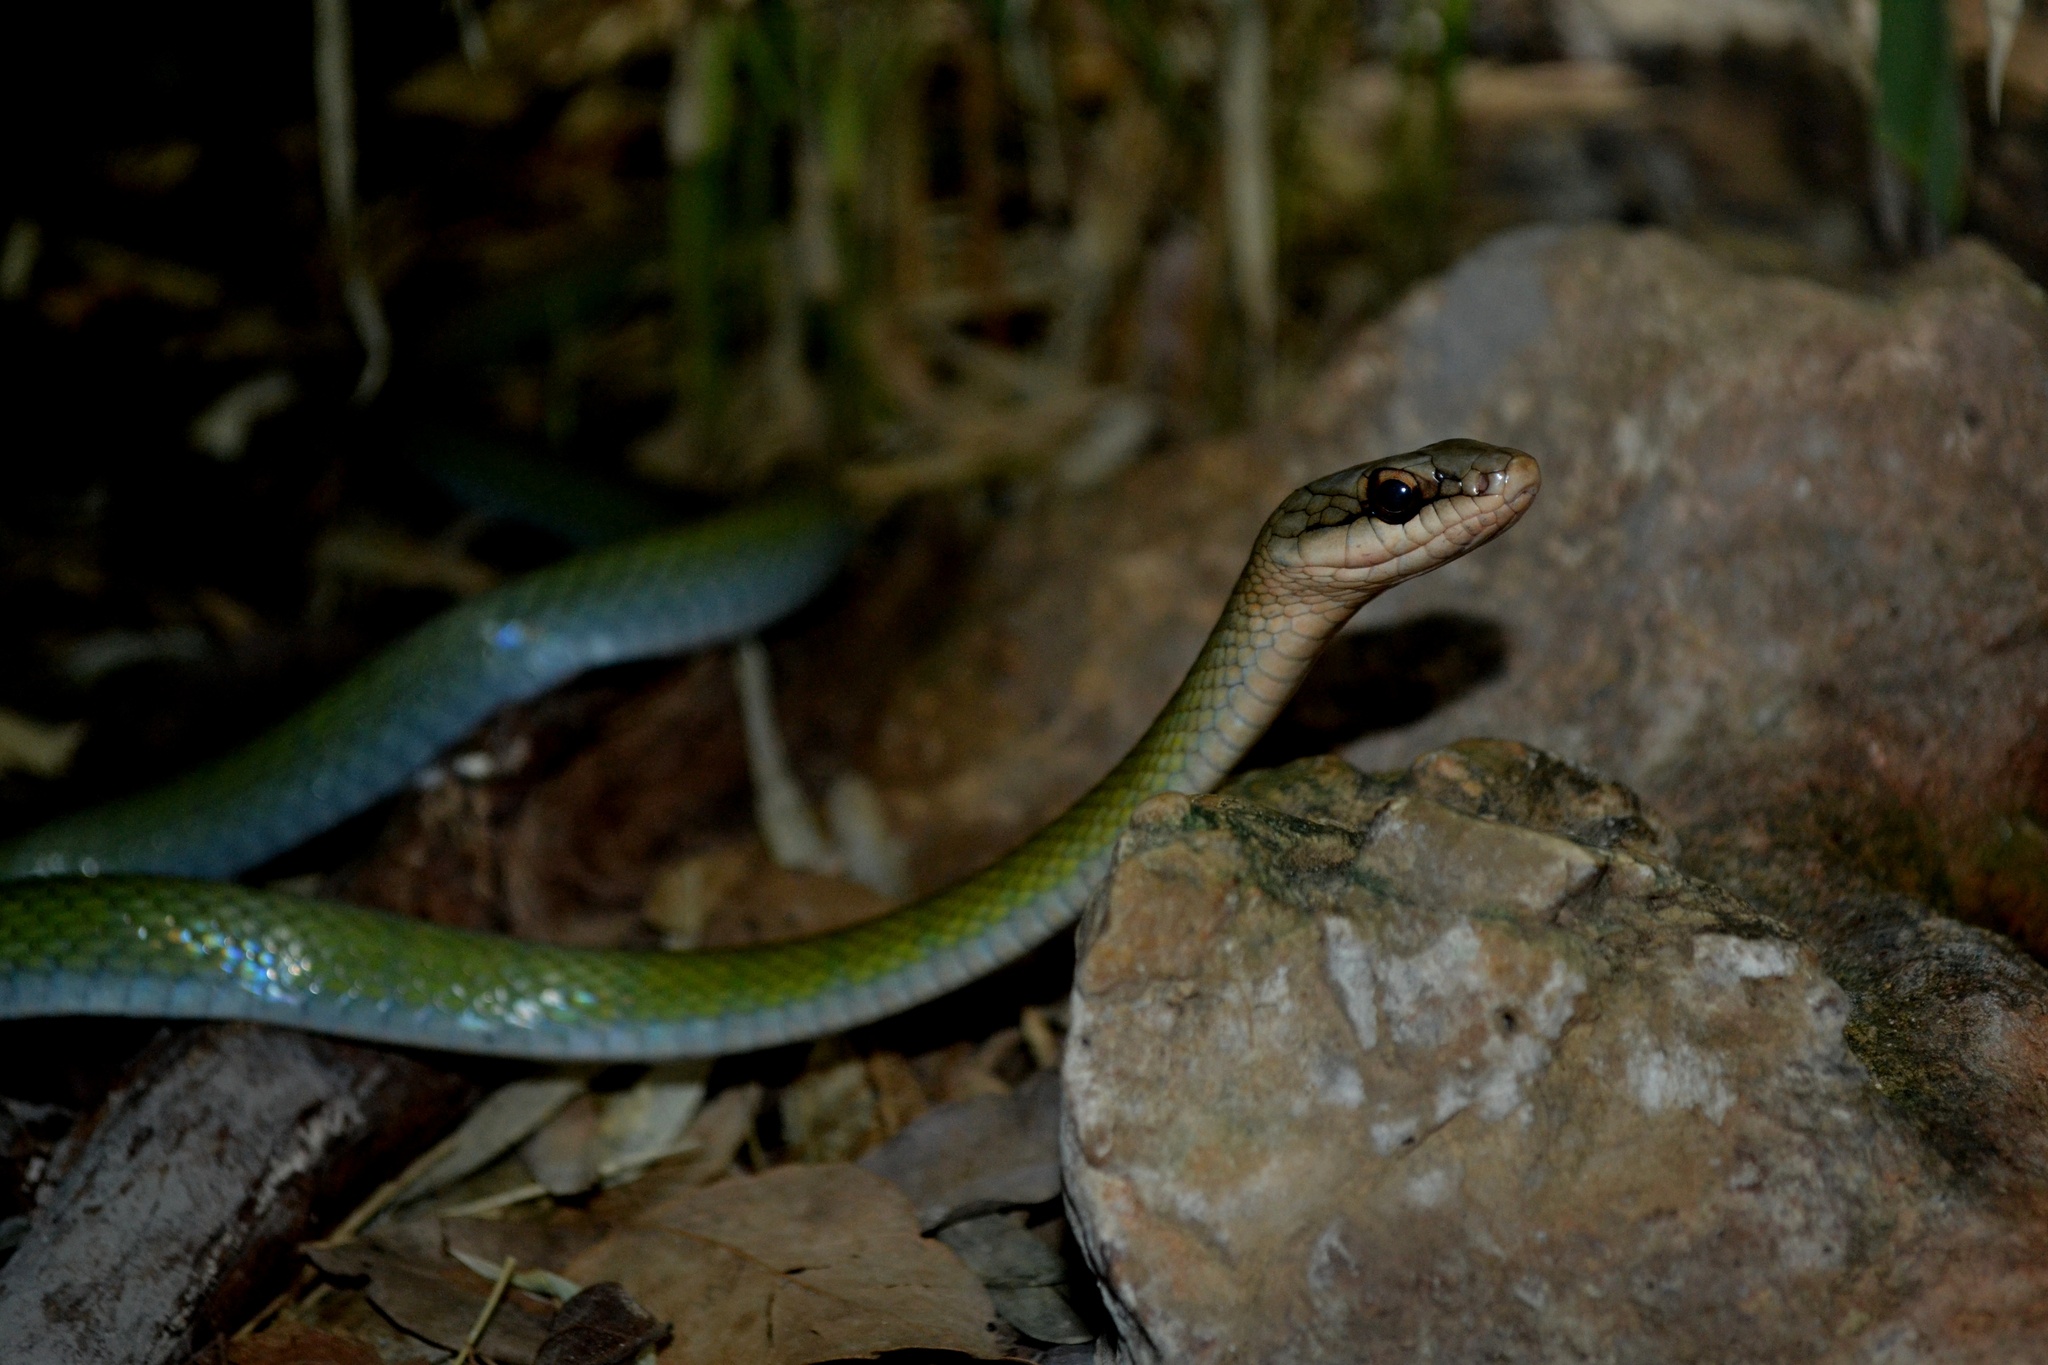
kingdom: Animalia
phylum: Chordata
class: Squamata
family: Colubridae
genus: Mastigodryas
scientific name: Mastigodryas melanolomus
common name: Salmon-bellied racer
